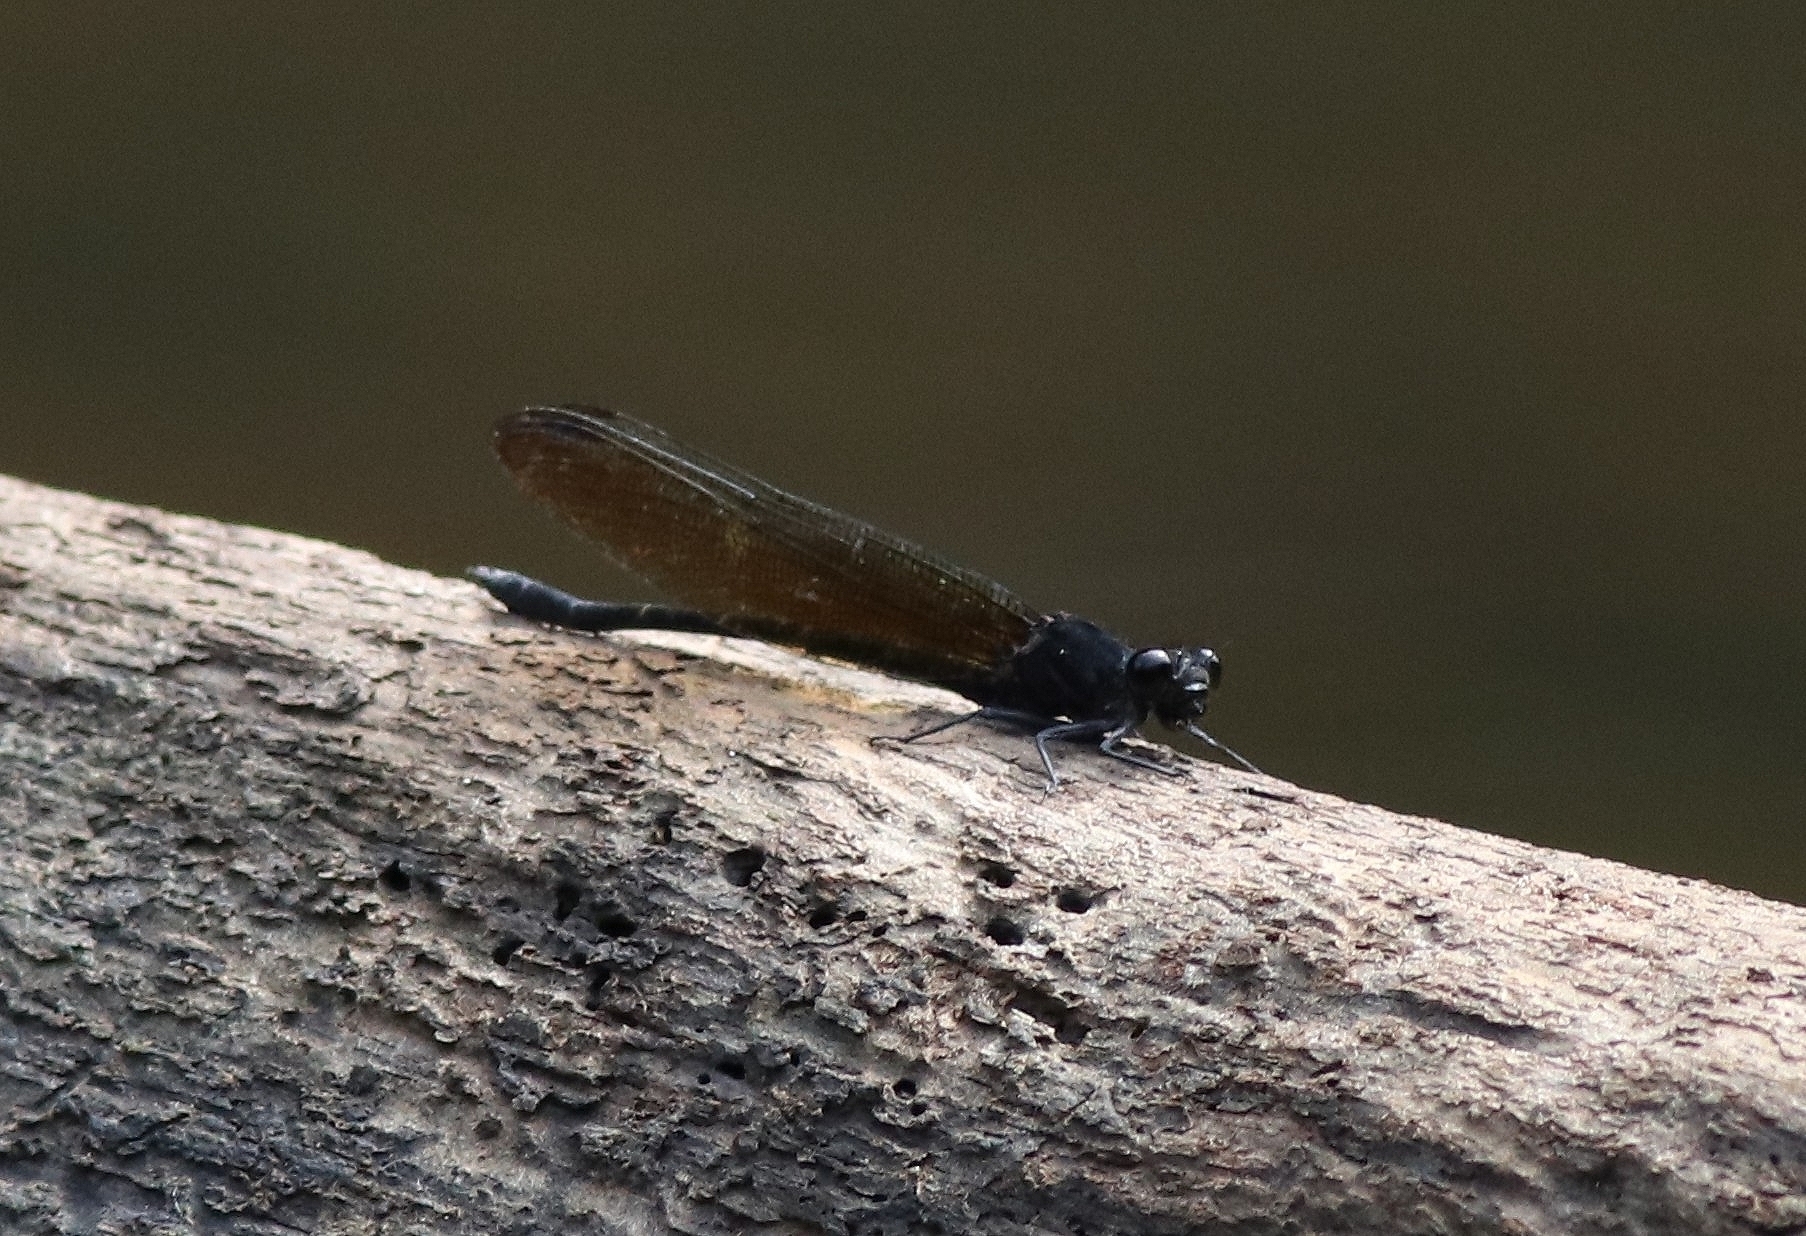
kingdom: Animalia
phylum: Arthropoda
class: Insecta
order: Odonata
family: Euphaeidae
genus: Dysphaea
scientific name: Dysphaea ethela
